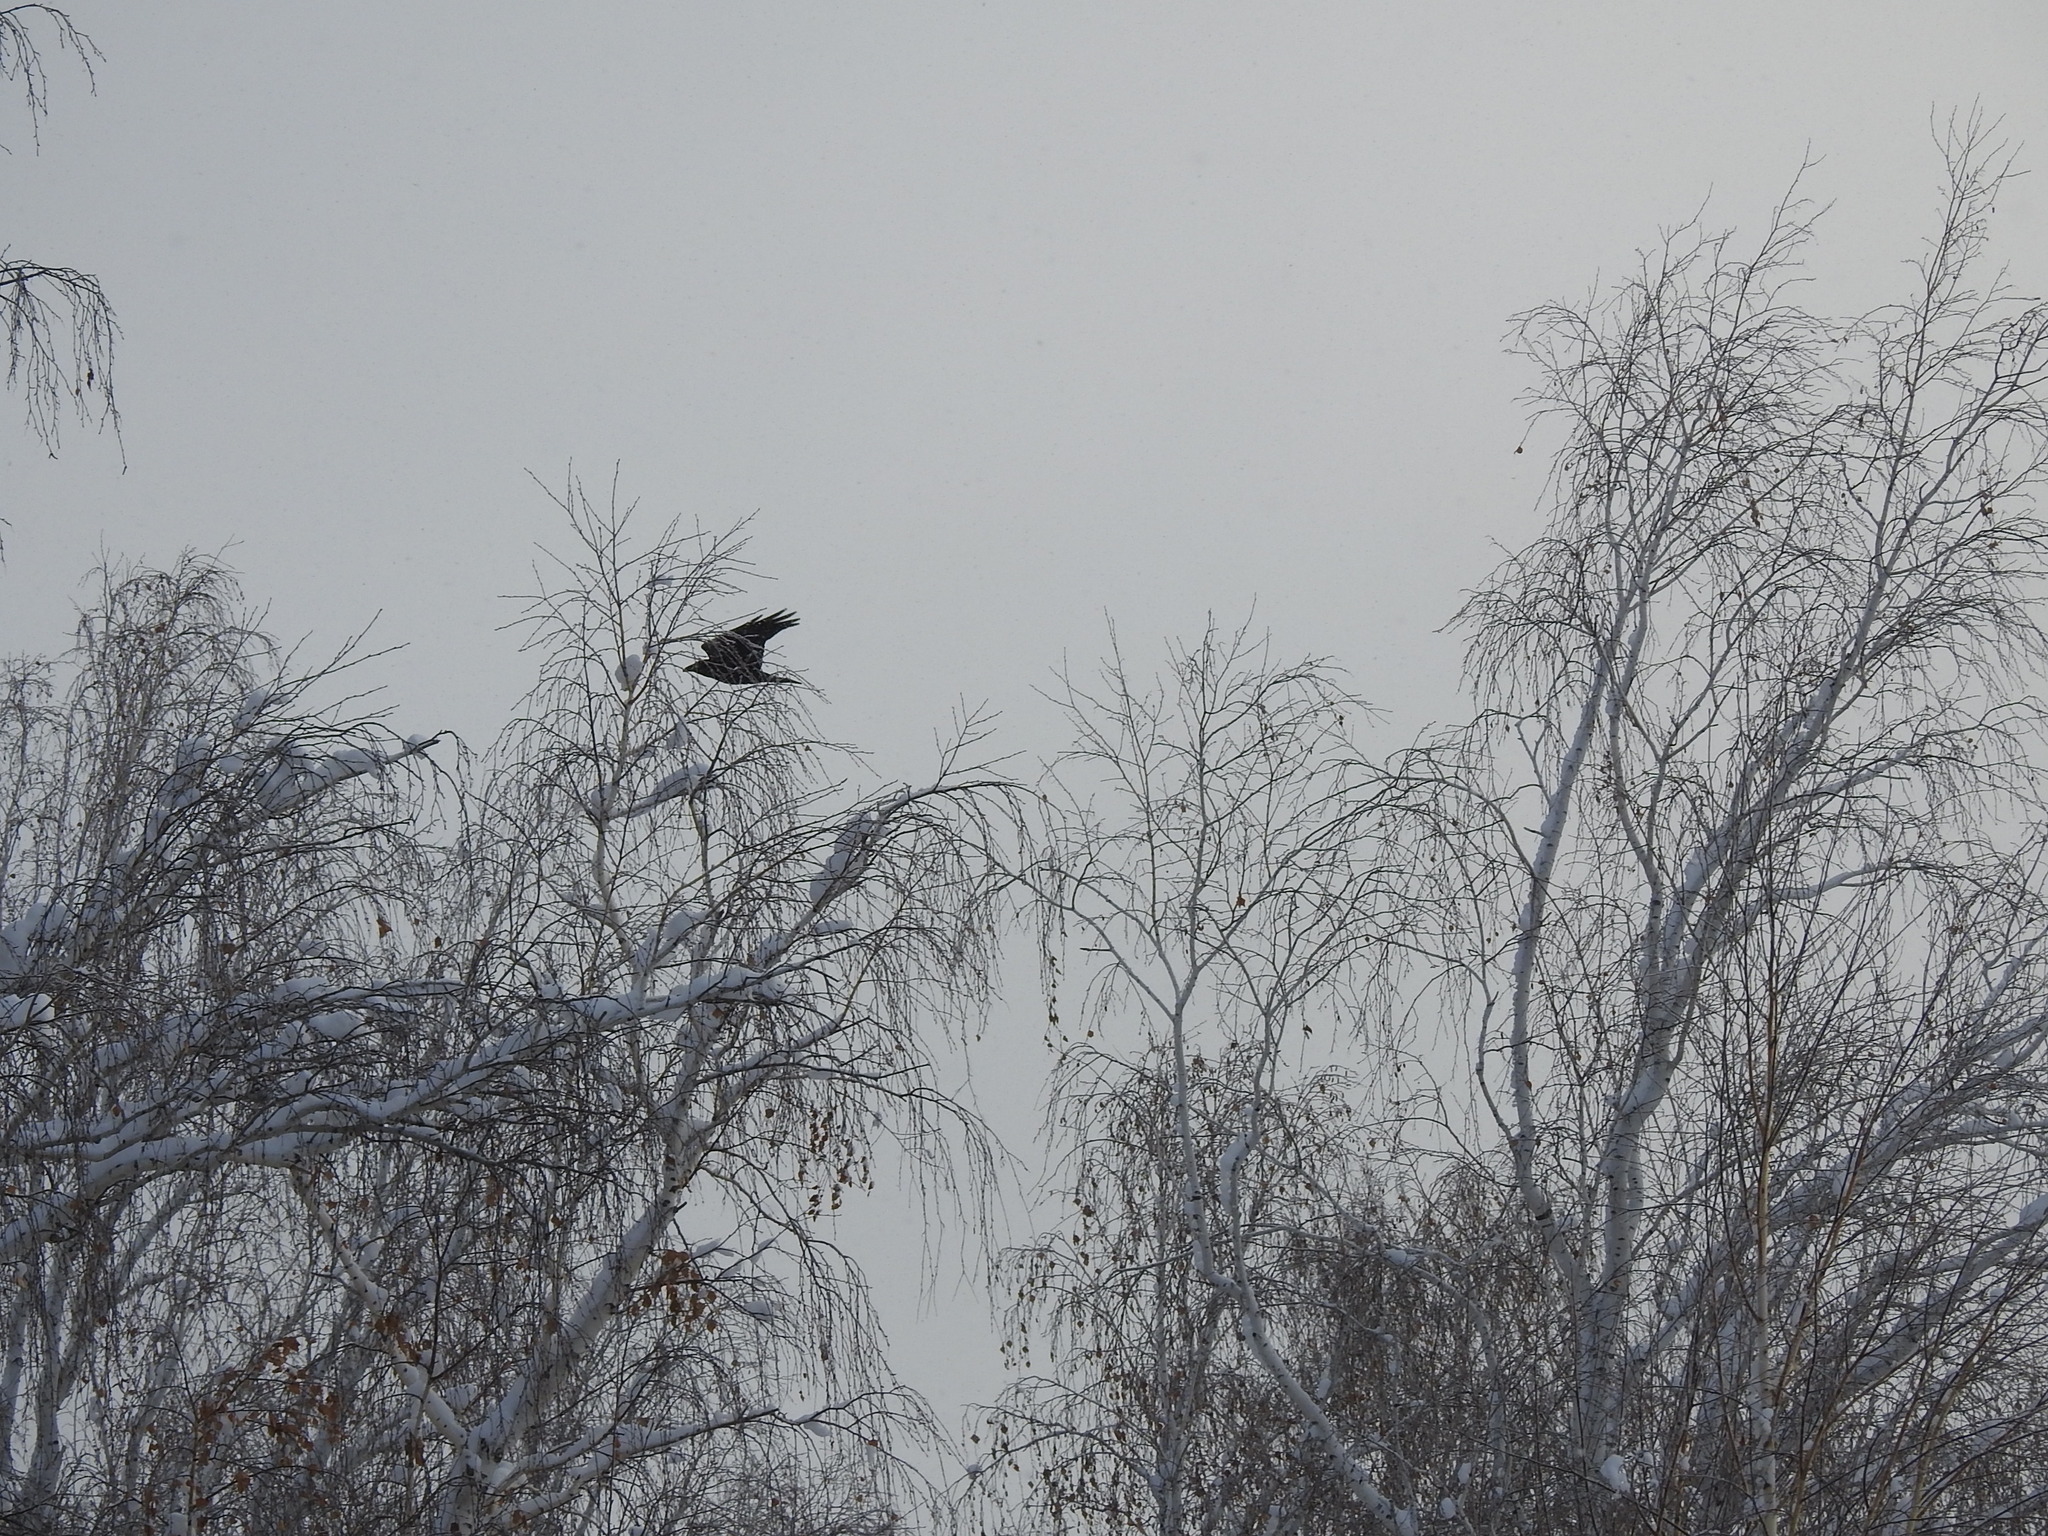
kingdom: Animalia
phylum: Chordata
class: Aves
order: Passeriformes
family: Corvidae
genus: Corvus
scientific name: Corvus corax
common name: Common raven
